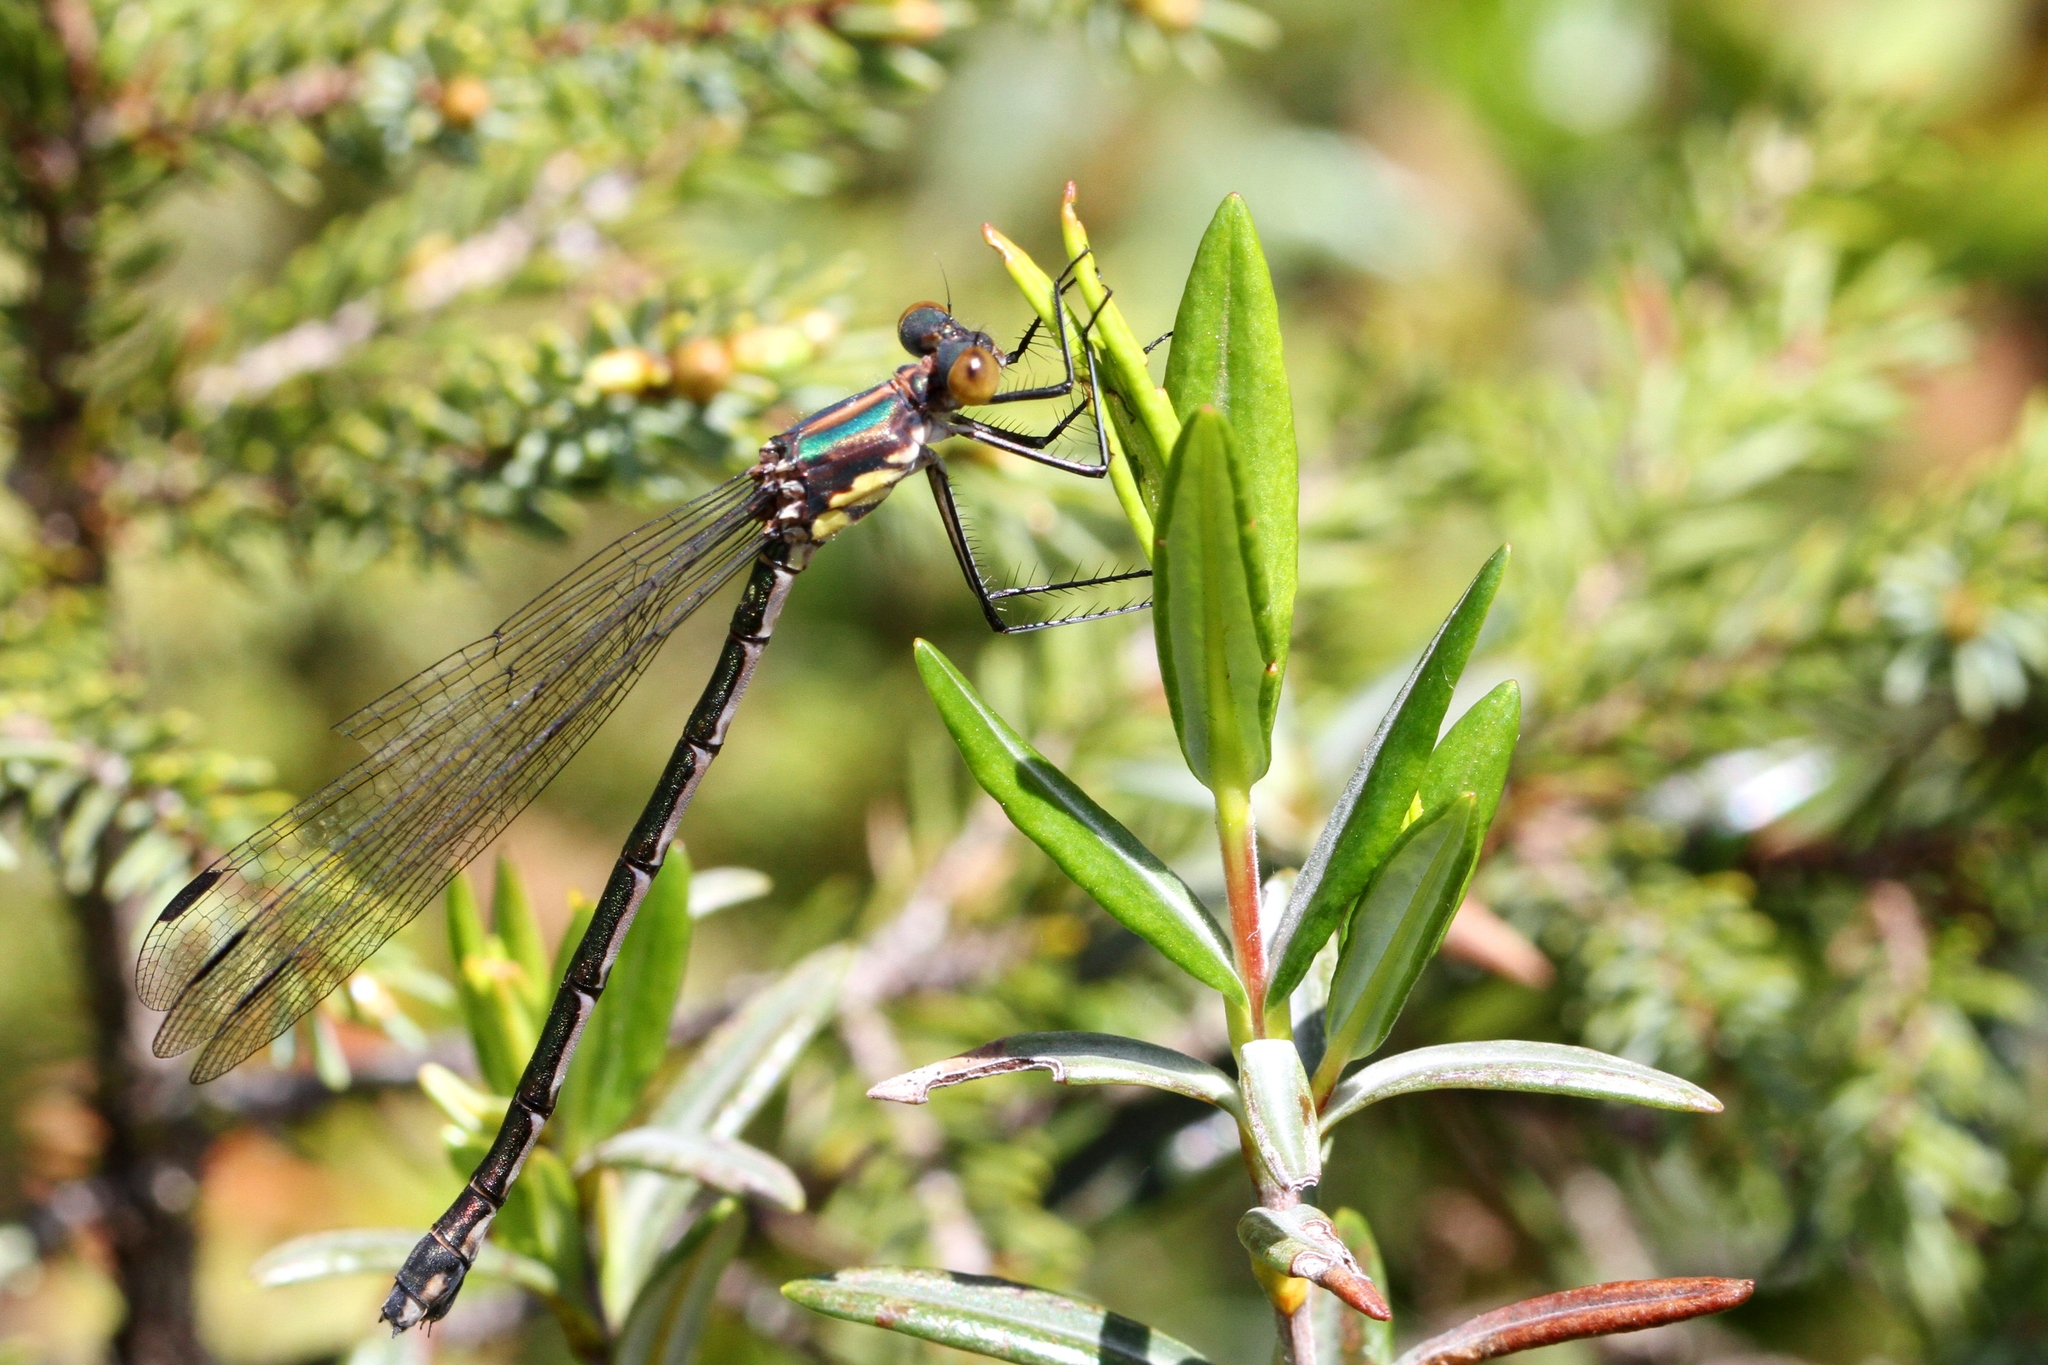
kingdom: Animalia
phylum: Arthropoda
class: Insecta
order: Odonata
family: Lestidae
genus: Lestes
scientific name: Lestes eurinus
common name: Amber-winged spreadwing
